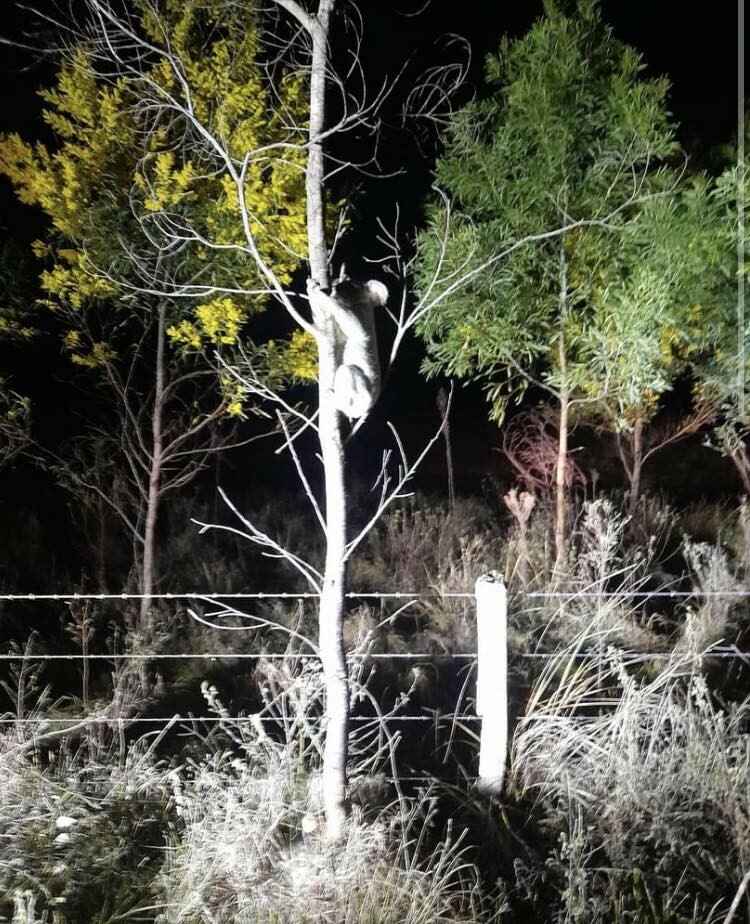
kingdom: Animalia
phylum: Chordata
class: Mammalia
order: Diprotodontia
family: Phascolarctidae
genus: Phascolarctos
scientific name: Phascolarctos cinereus
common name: Koala
